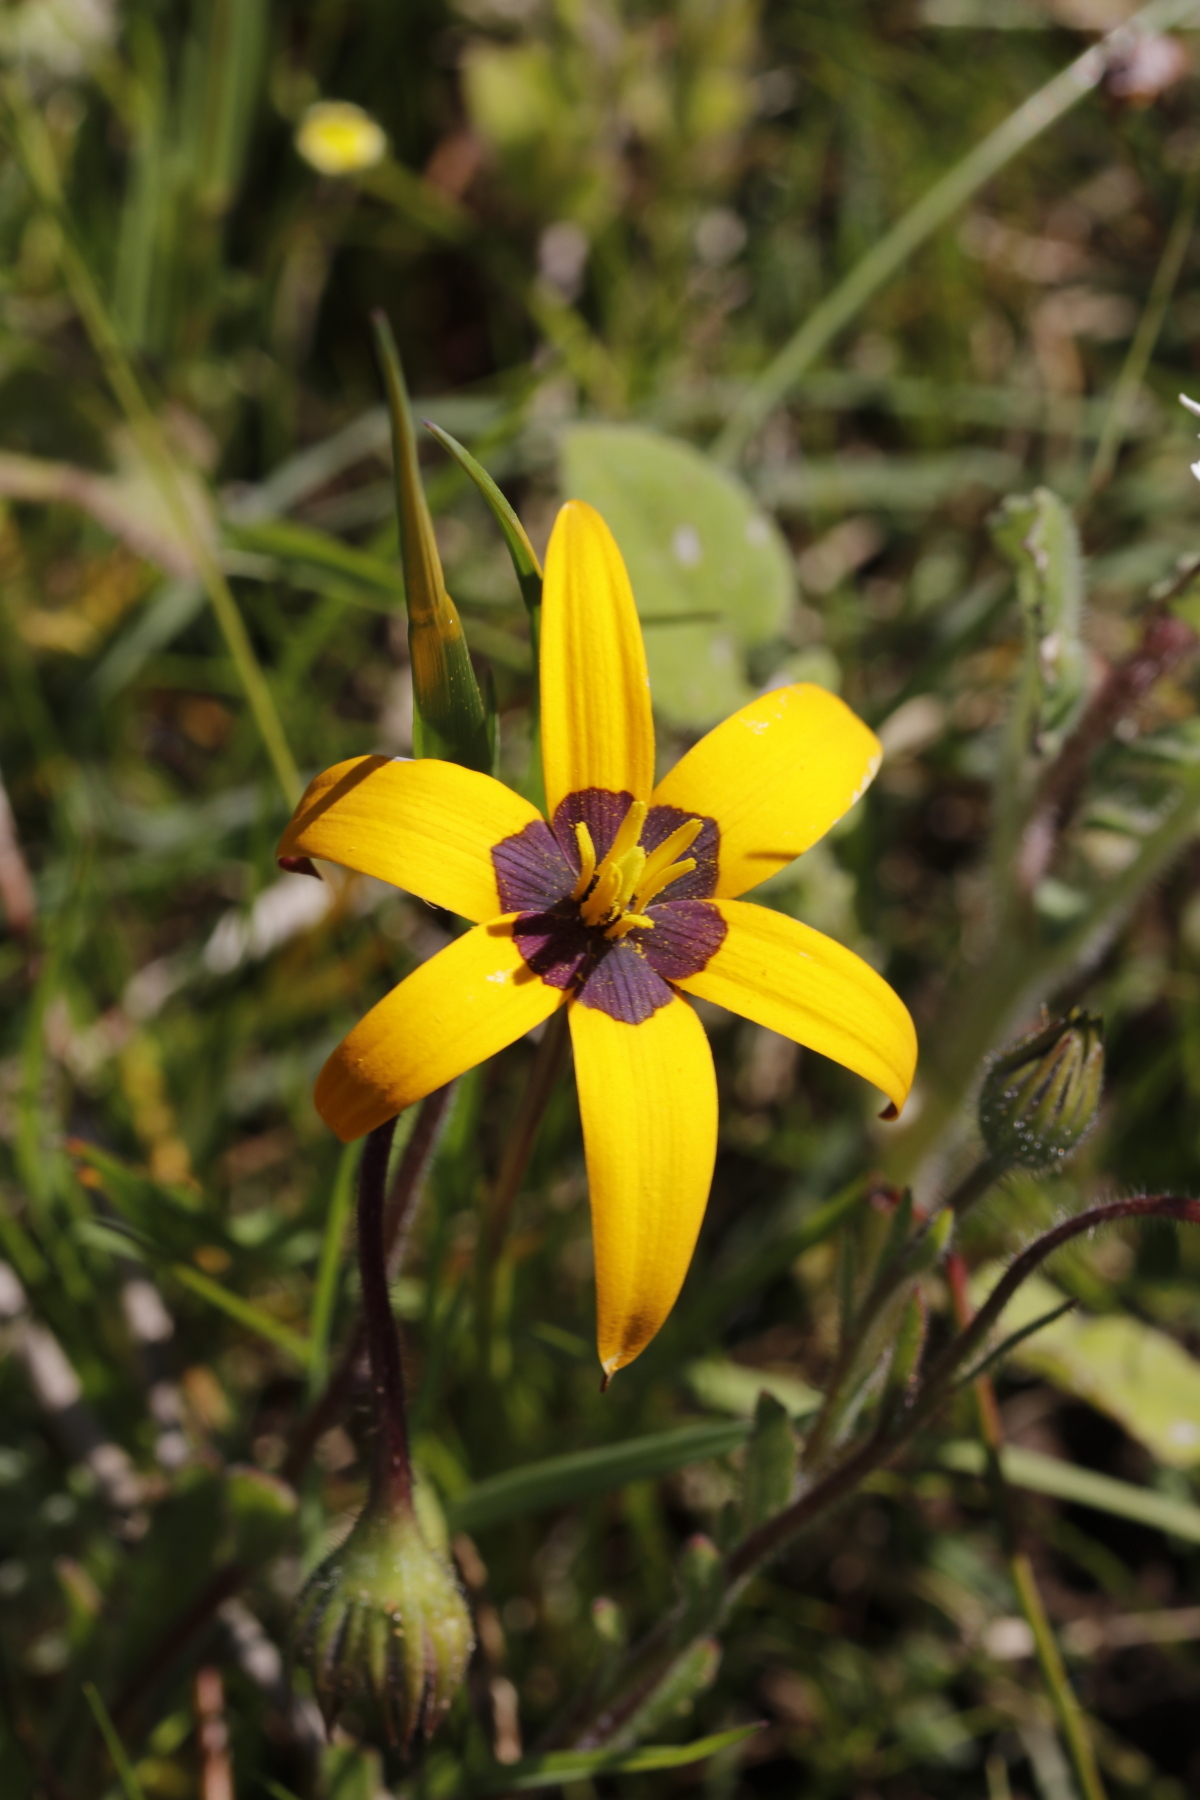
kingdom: Plantae
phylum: Tracheophyta
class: Liliopsida
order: Asparagales
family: Hypoxidaceae
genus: Pauridia
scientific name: Pauridia canaliculata
